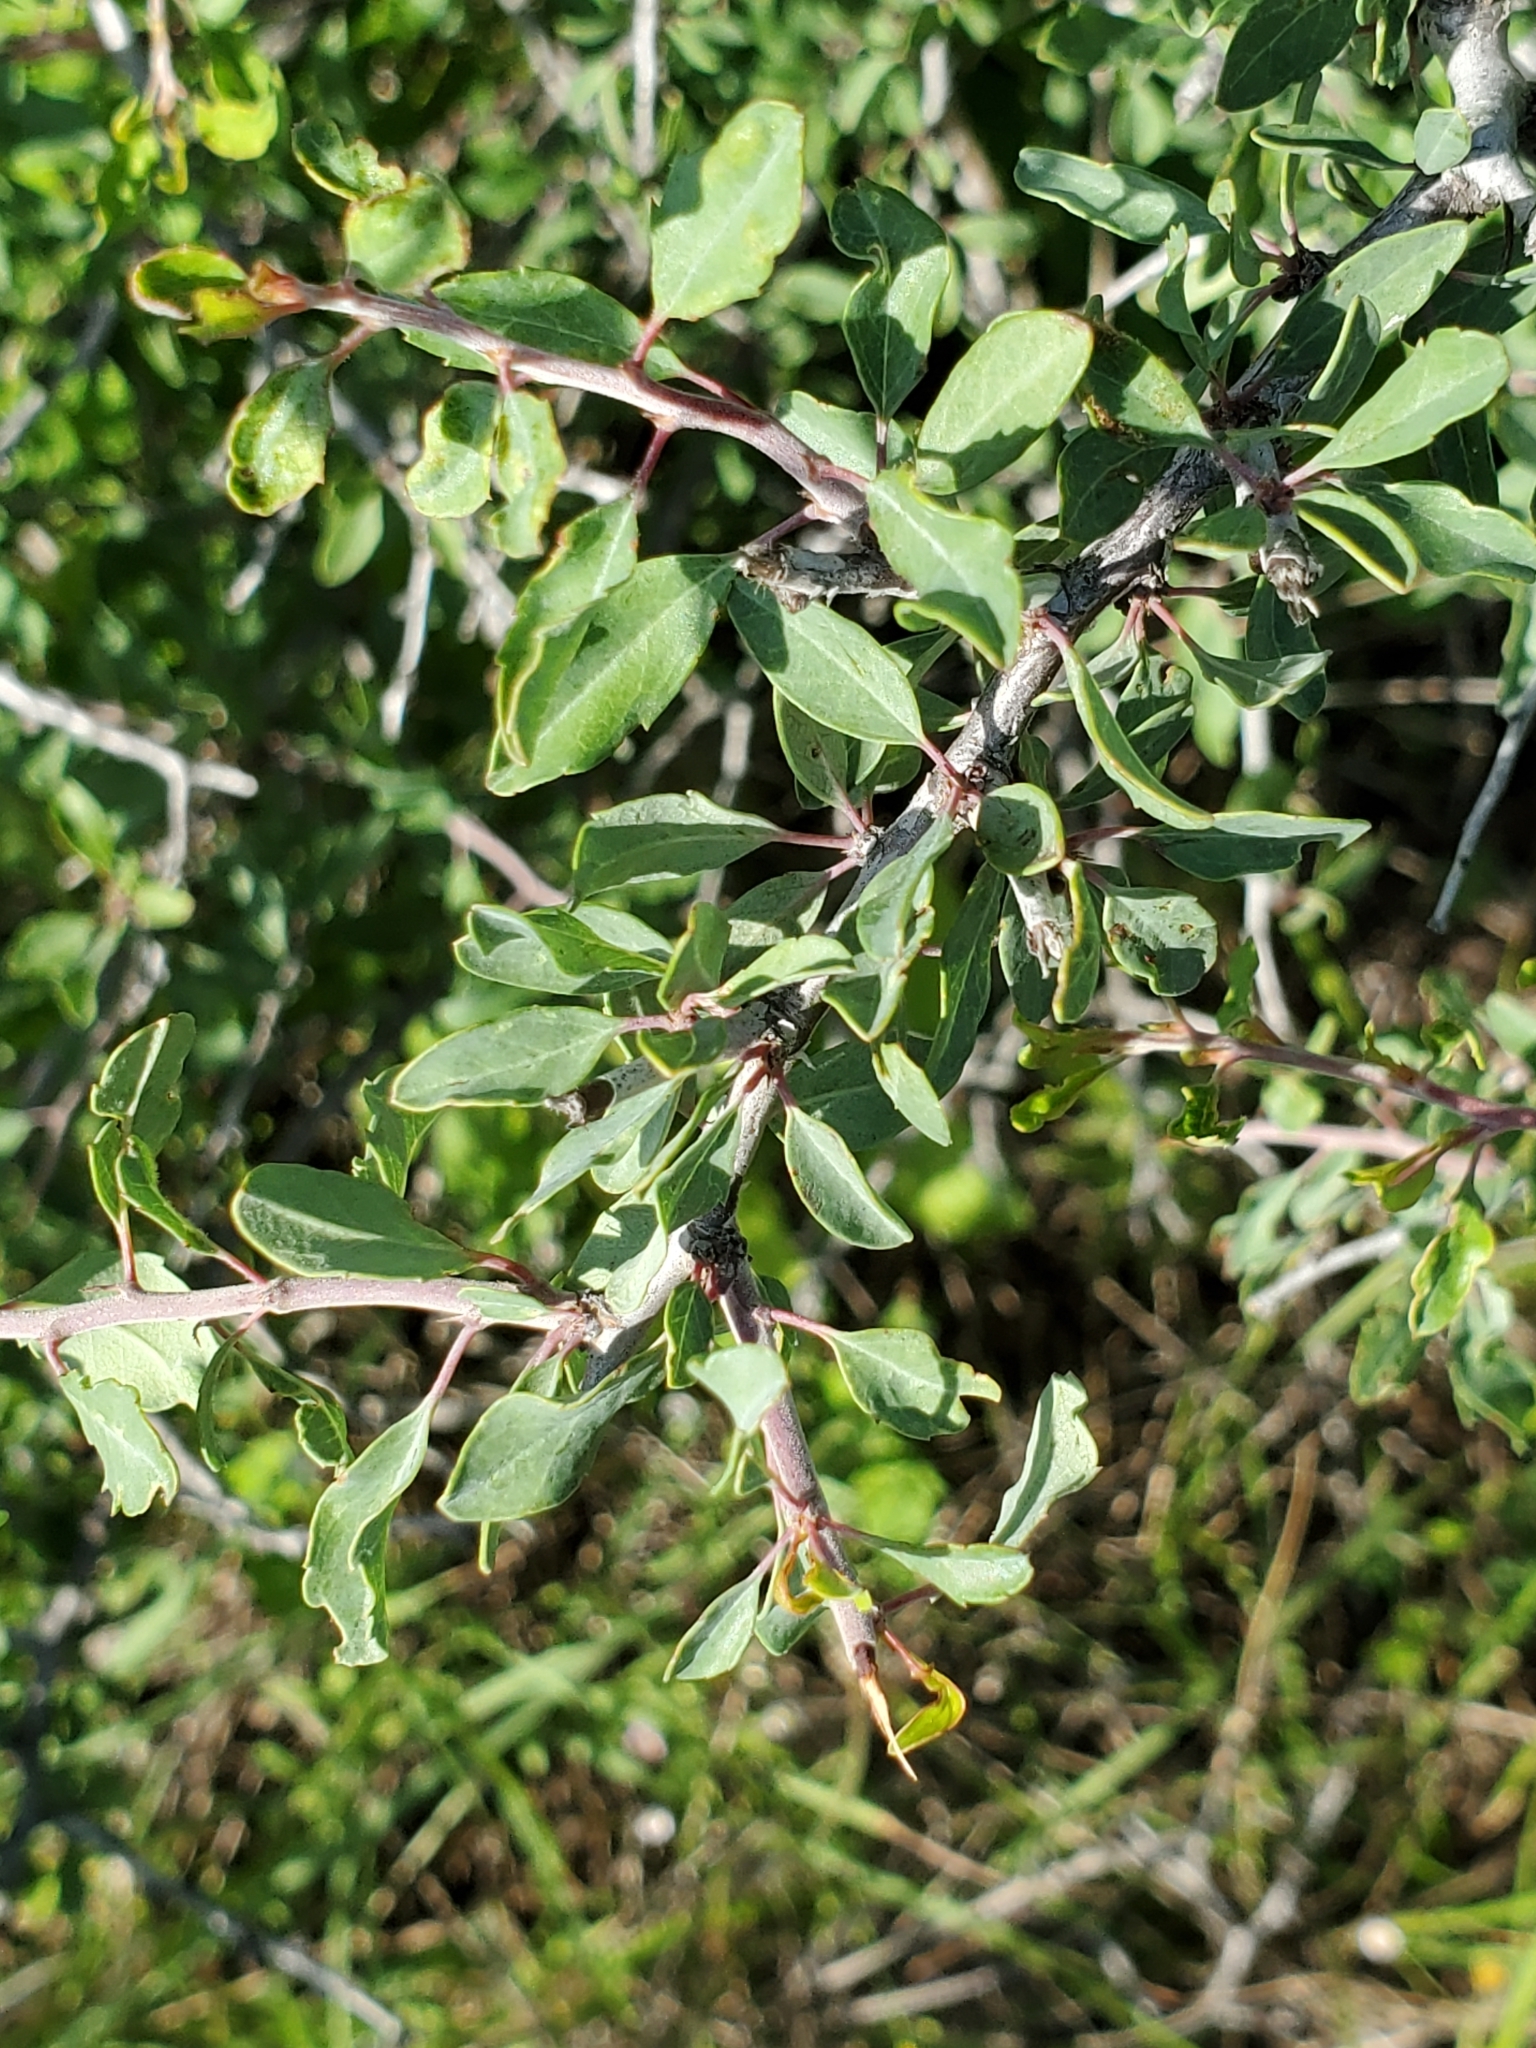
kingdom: Plantae
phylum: Tracheophyta
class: Magnoliopsida
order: Rosales
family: Rosaceae
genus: Prunus
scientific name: Prunus minutiflora
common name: Texas almond
